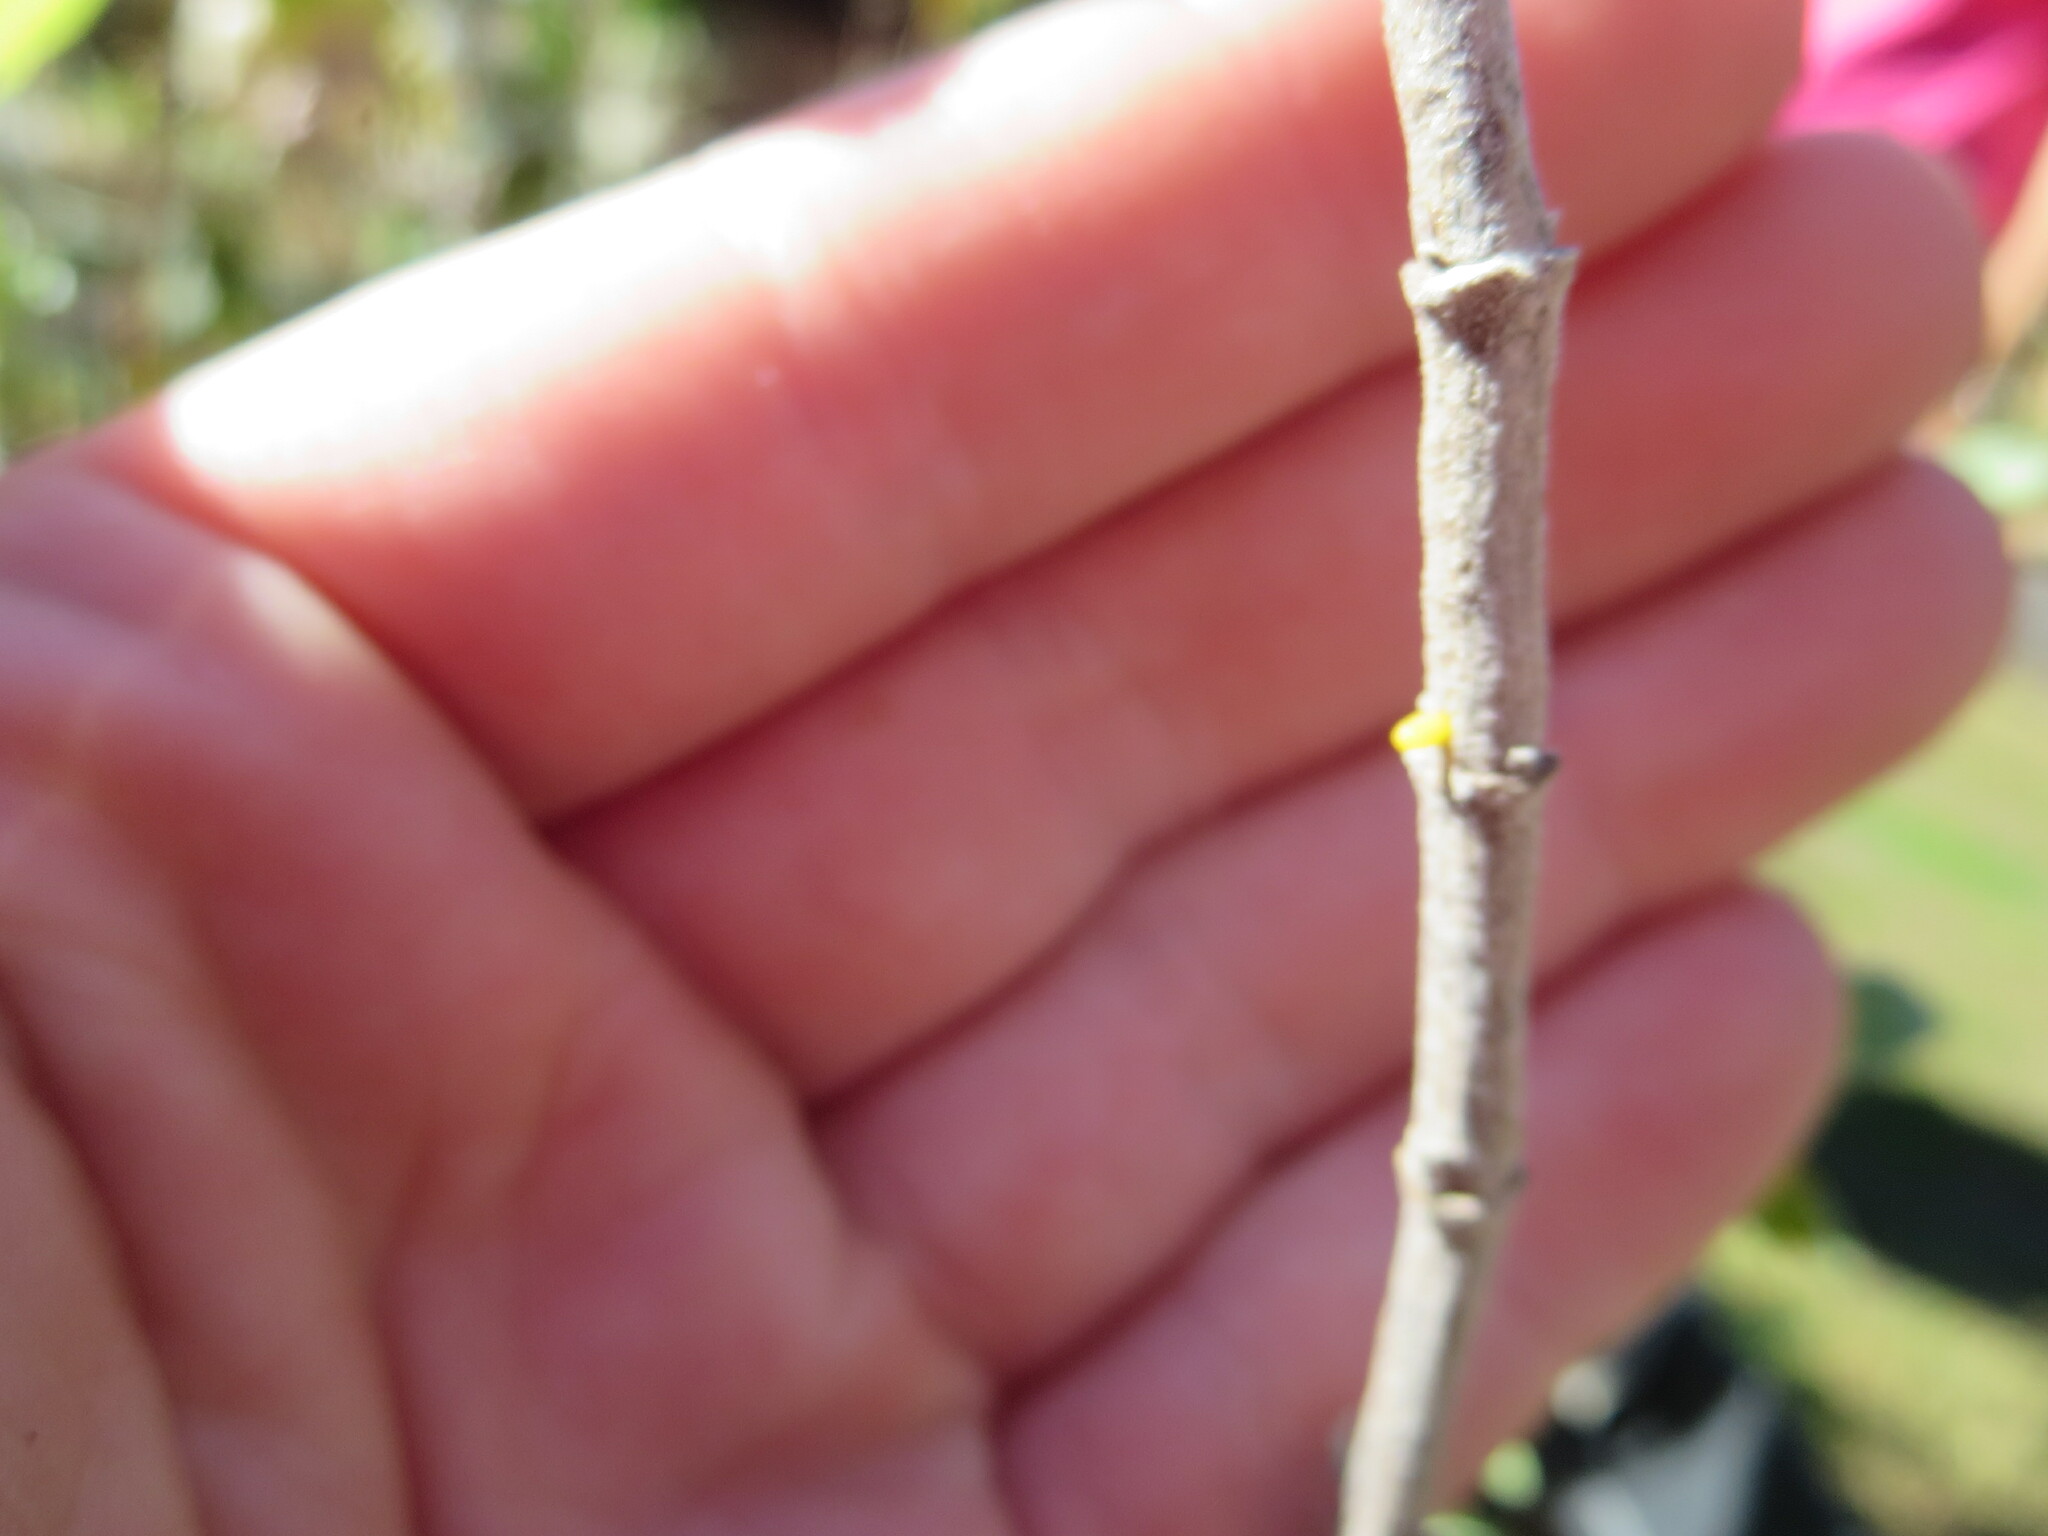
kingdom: Animalia
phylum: Arthropoda
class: Insecta
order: Lepidoptera
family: Nymphalidae
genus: Dione
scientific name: Dione vanillae
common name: Gulf fritillary
